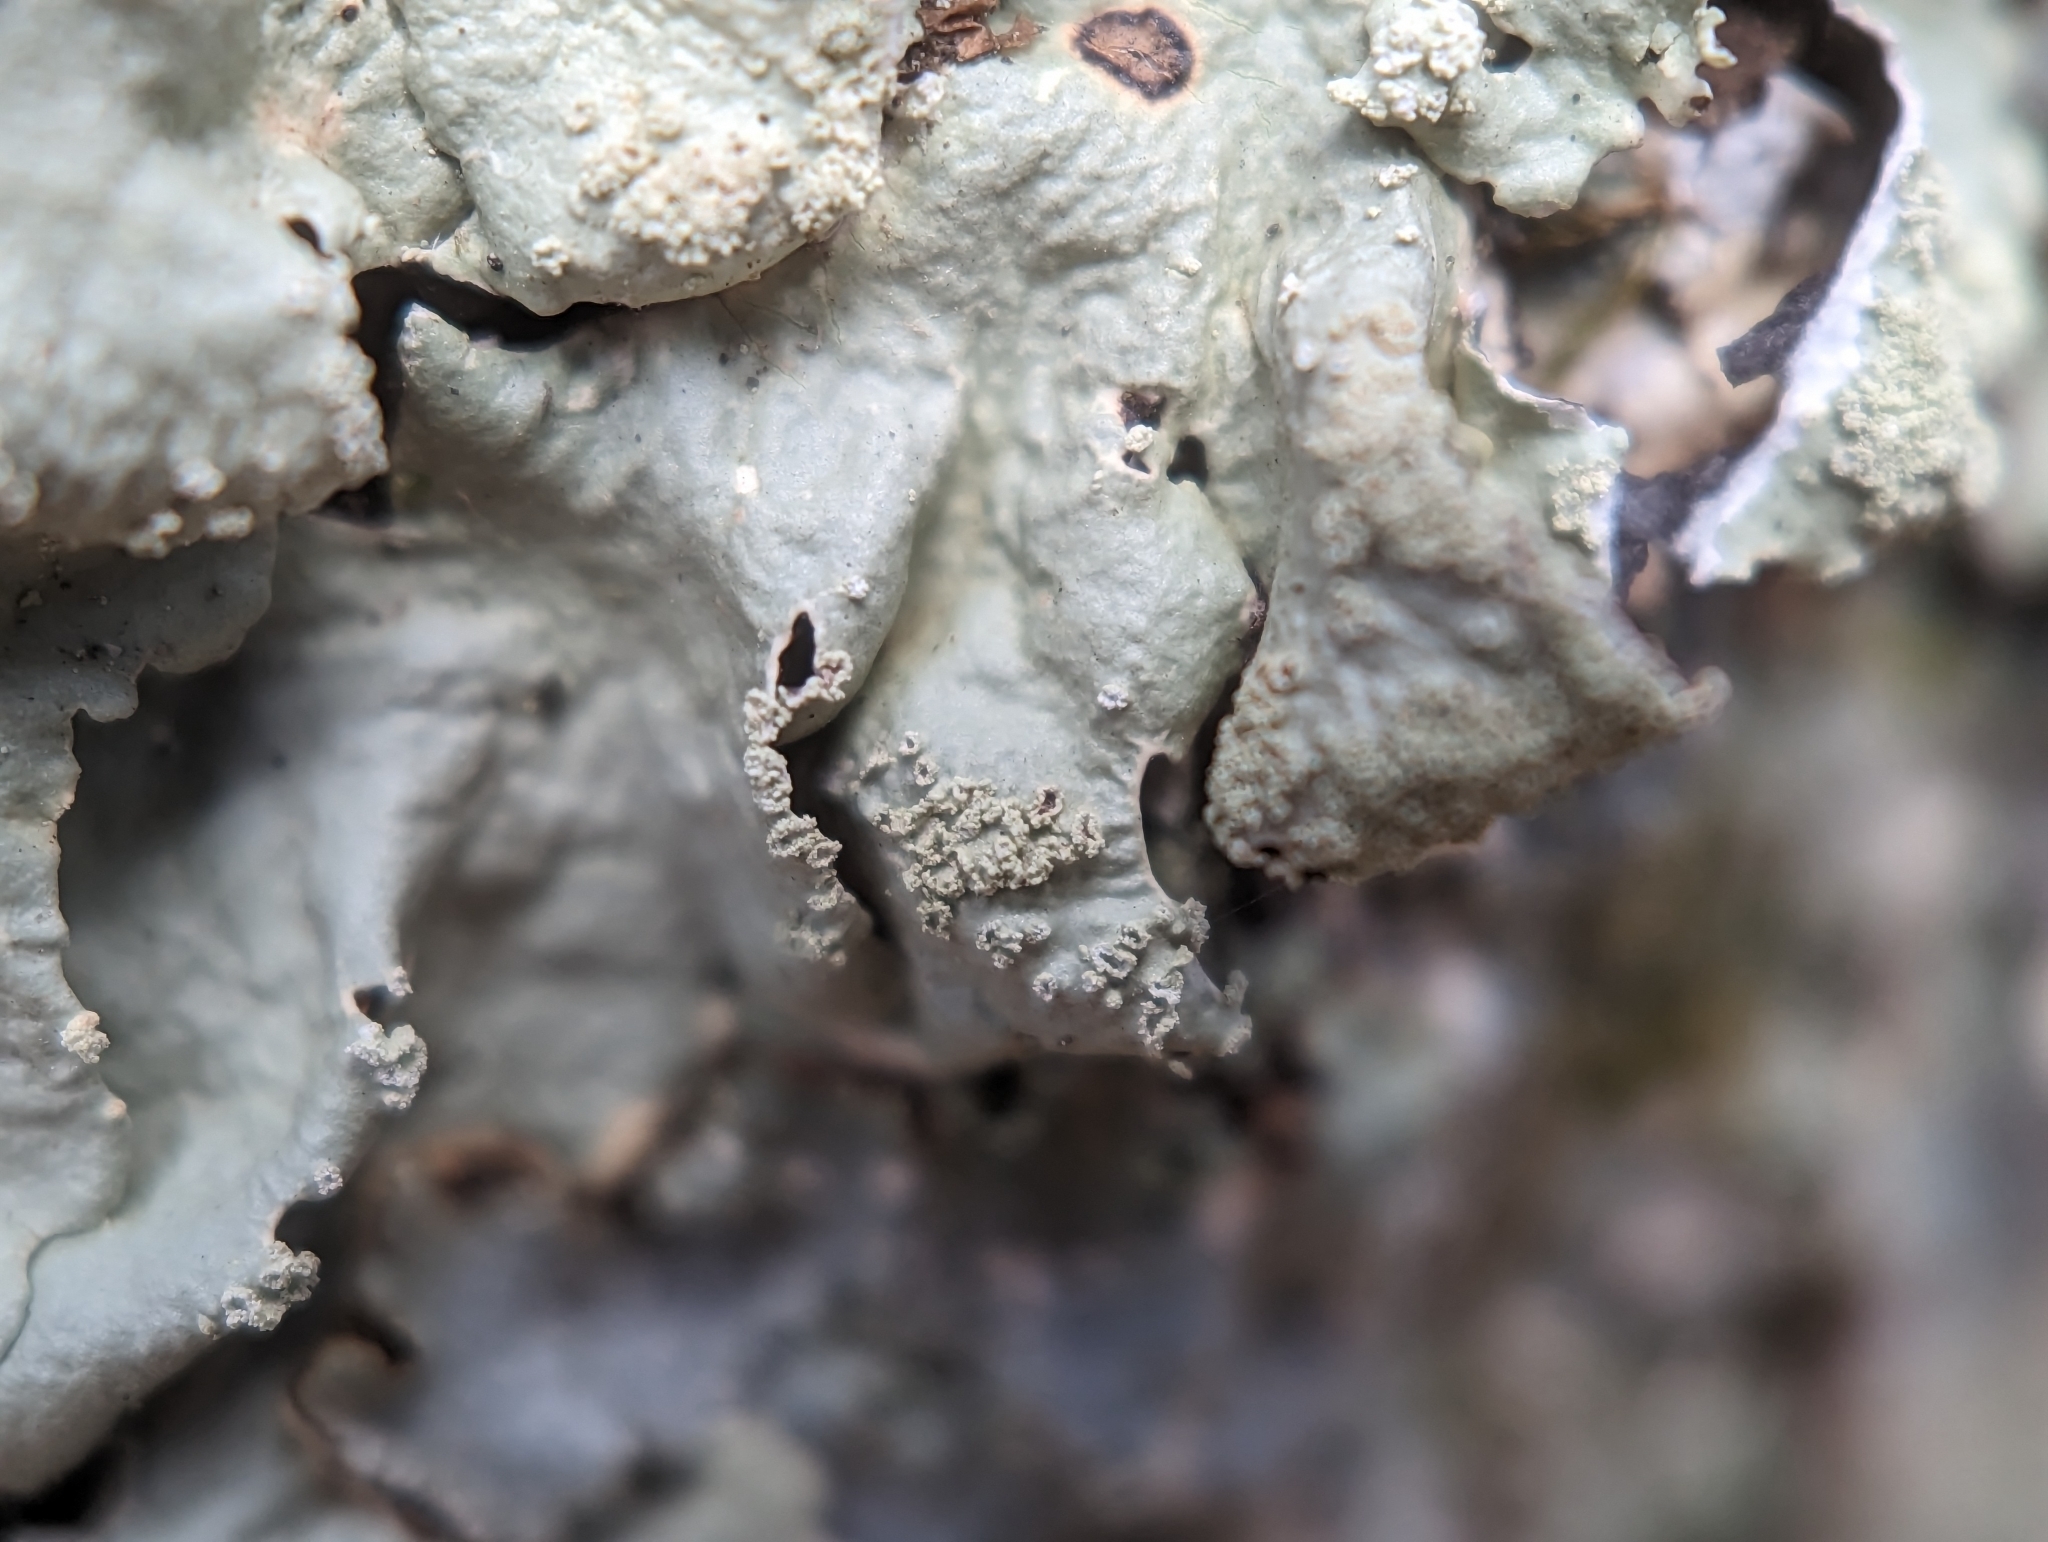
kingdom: Fungi
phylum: Ascomycota
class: Lecanoromycetes
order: Lecanorales
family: Parmeliaceae
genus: Flavoparmelia
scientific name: Flavoparmelia caperata
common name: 40-mile per hour lichen
